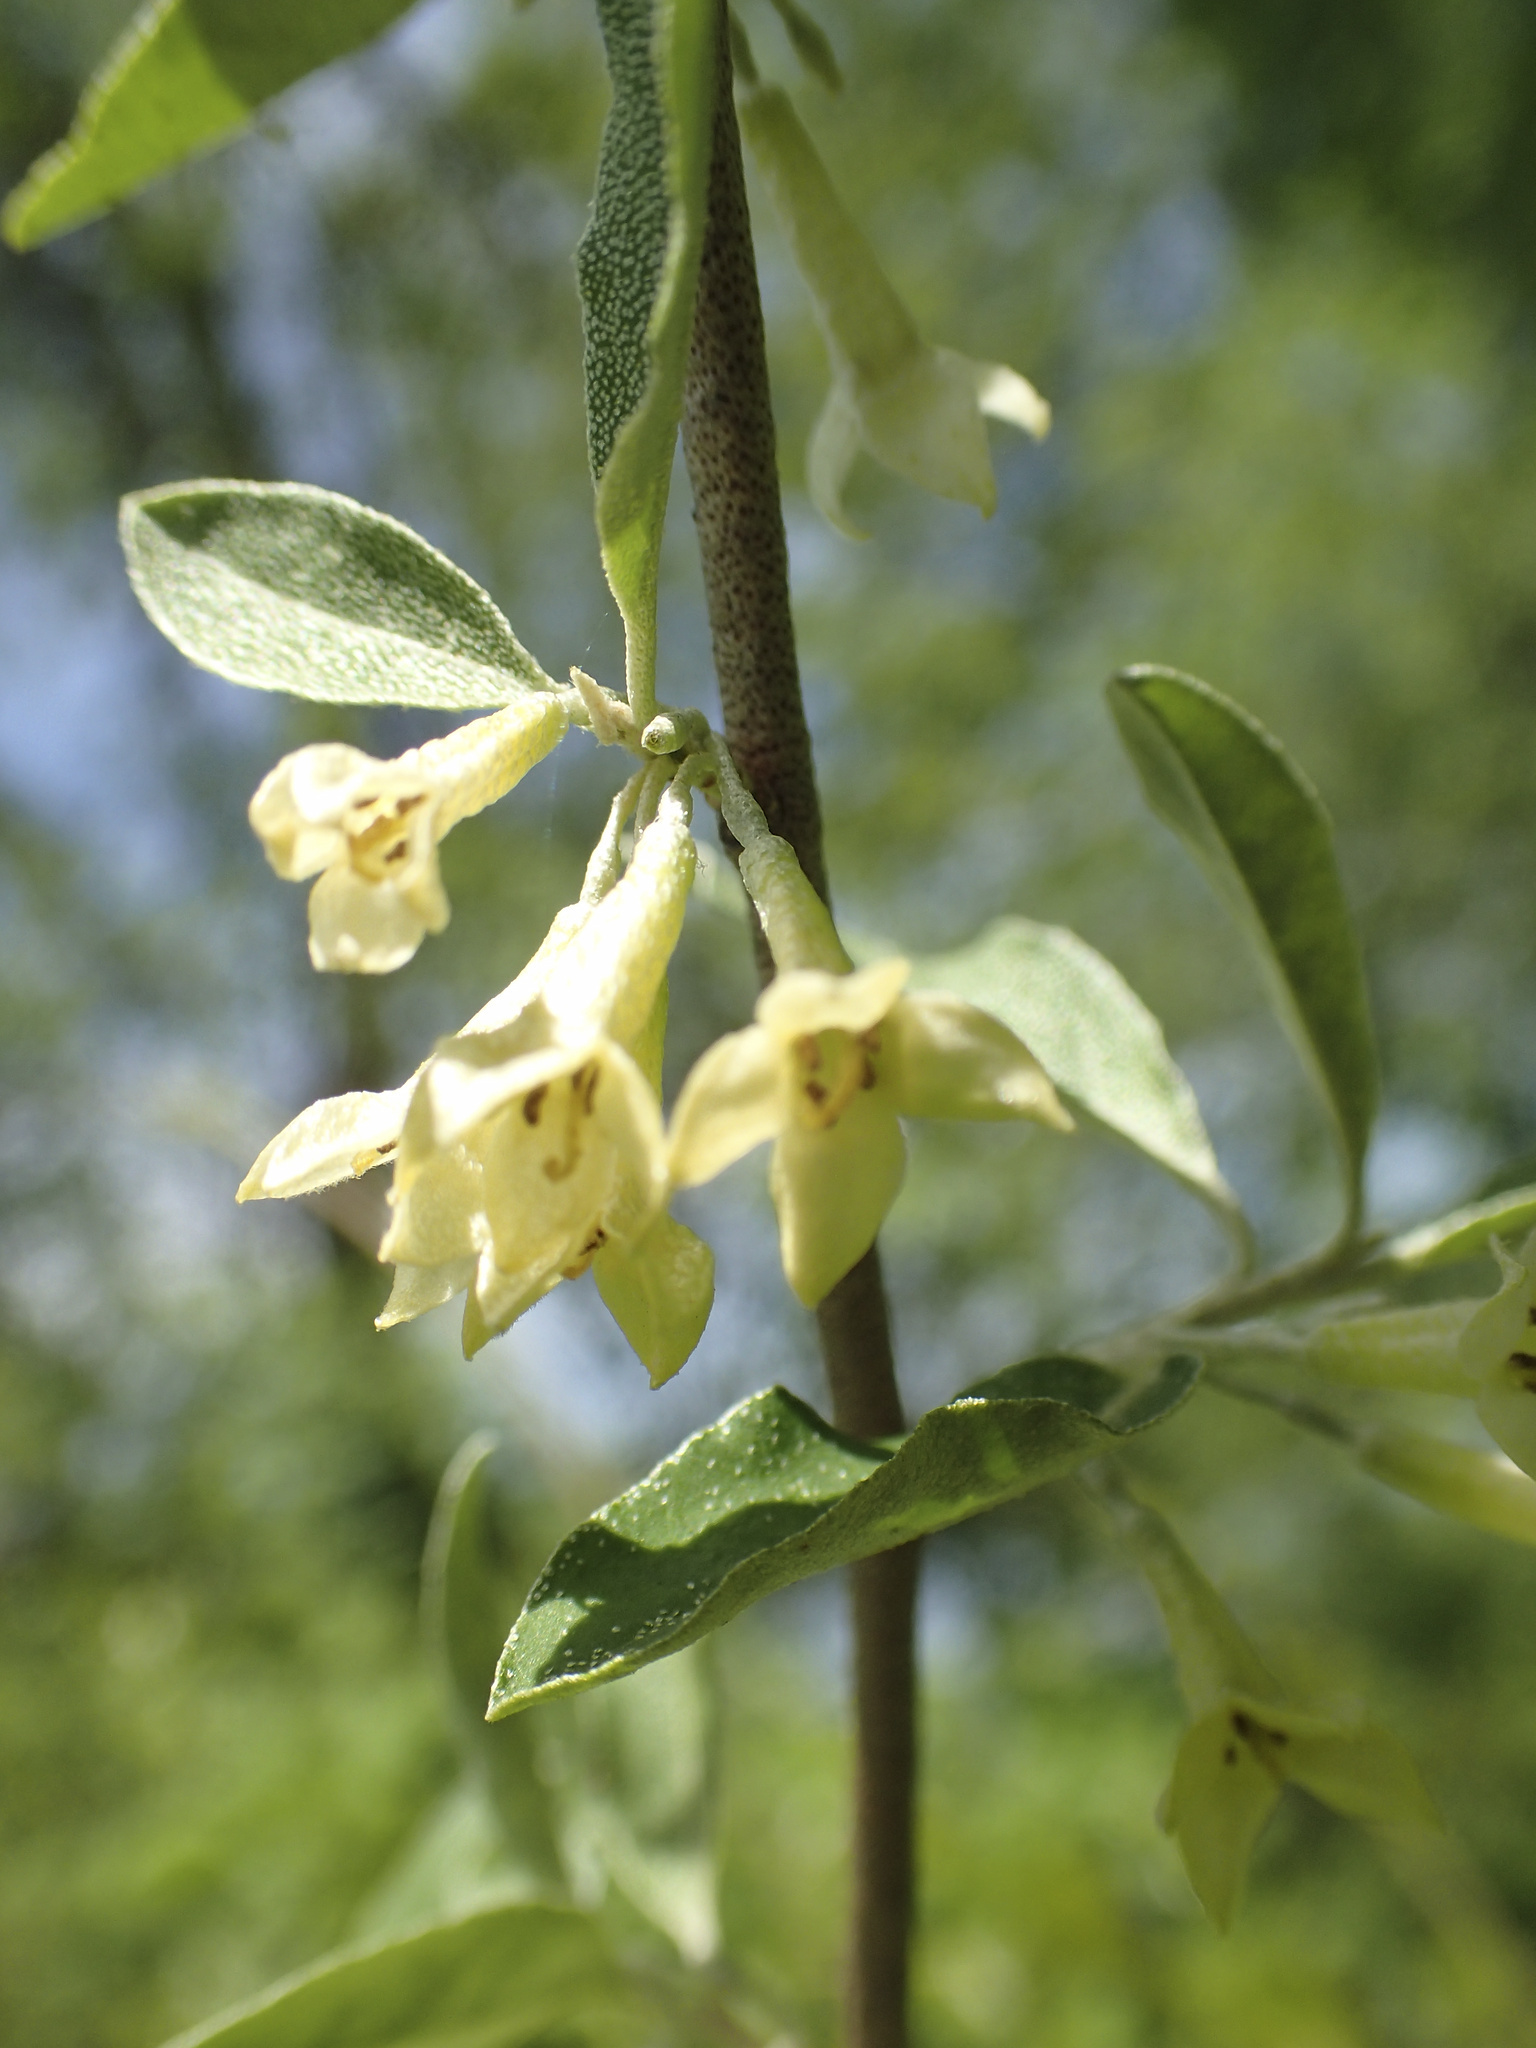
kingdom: Plantae
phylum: Tracheophyta
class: Magnoliopsida
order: Rosales
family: Elaeagnaceae
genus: Elaeagnus
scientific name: Elaeagnus umbellata
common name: Autumn olive
